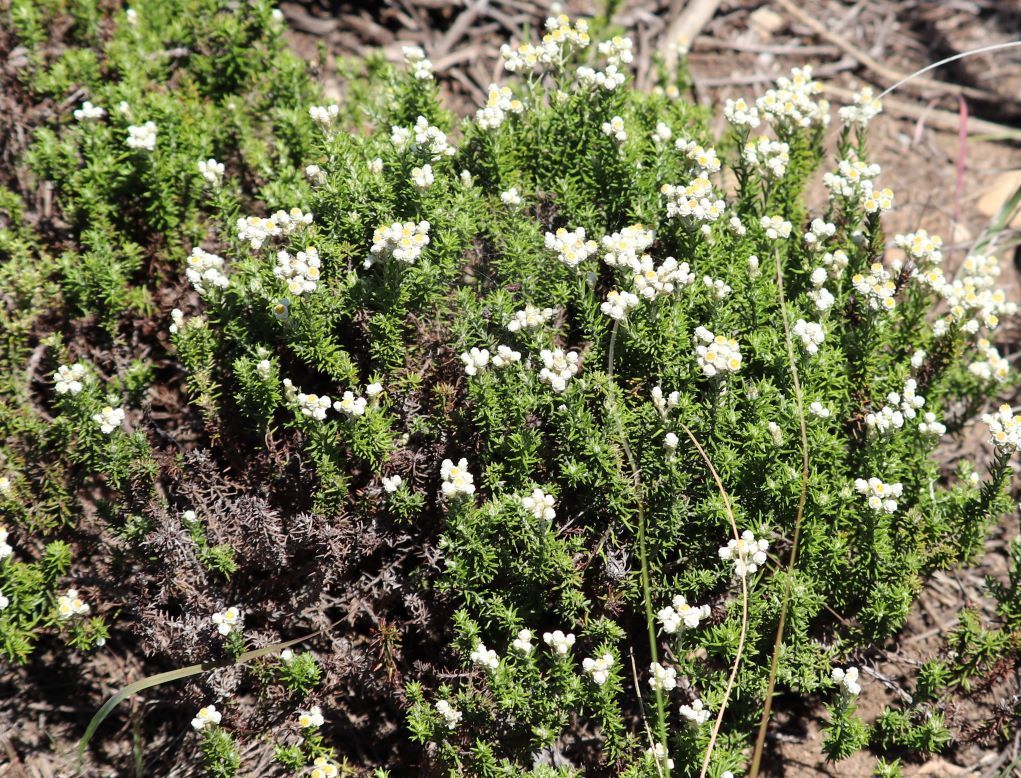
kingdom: Plantae
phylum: Tracheophyta
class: Magnoliopsida
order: Asterales
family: Asteraceae
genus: Helichrysum
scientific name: Helichrysum teretifolium
